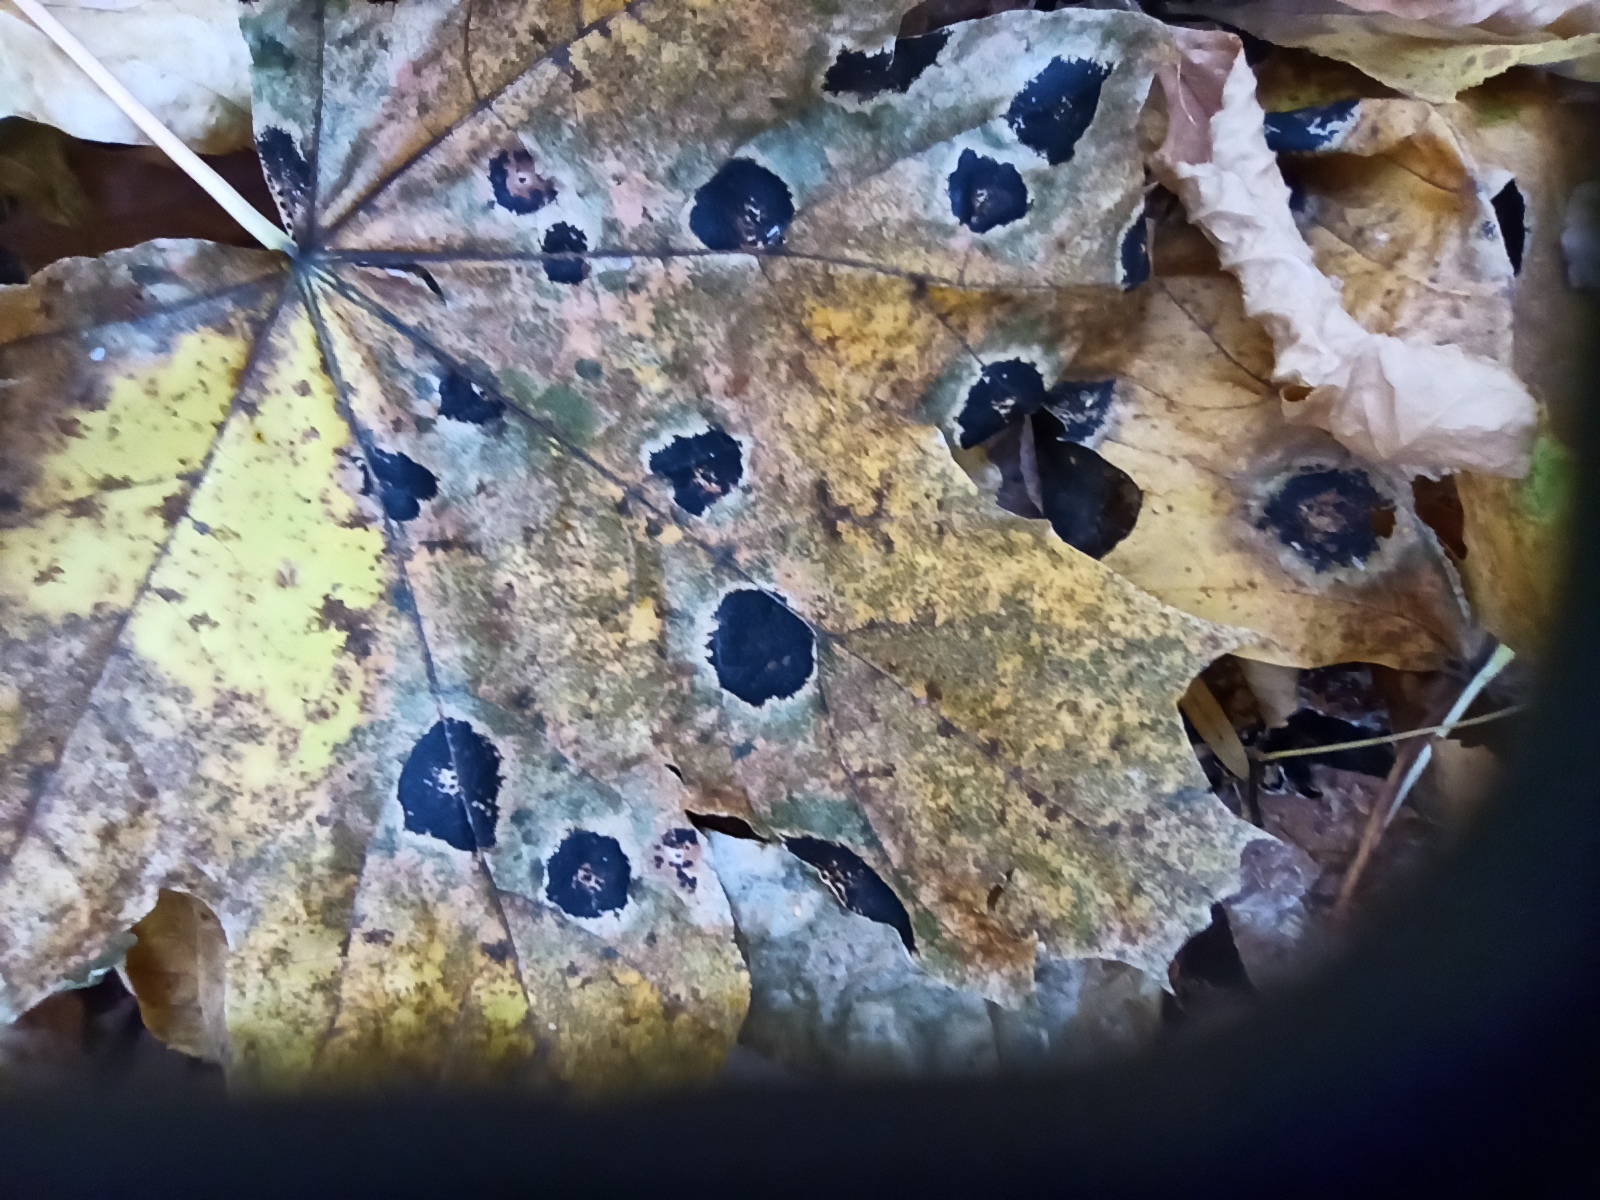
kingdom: Fungi
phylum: Ascomycota
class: Leotiomycetes
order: Rhytismatales
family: Rhytismataceae
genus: Rhytisma
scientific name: Rhytisma acerinum
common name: European tar spot
